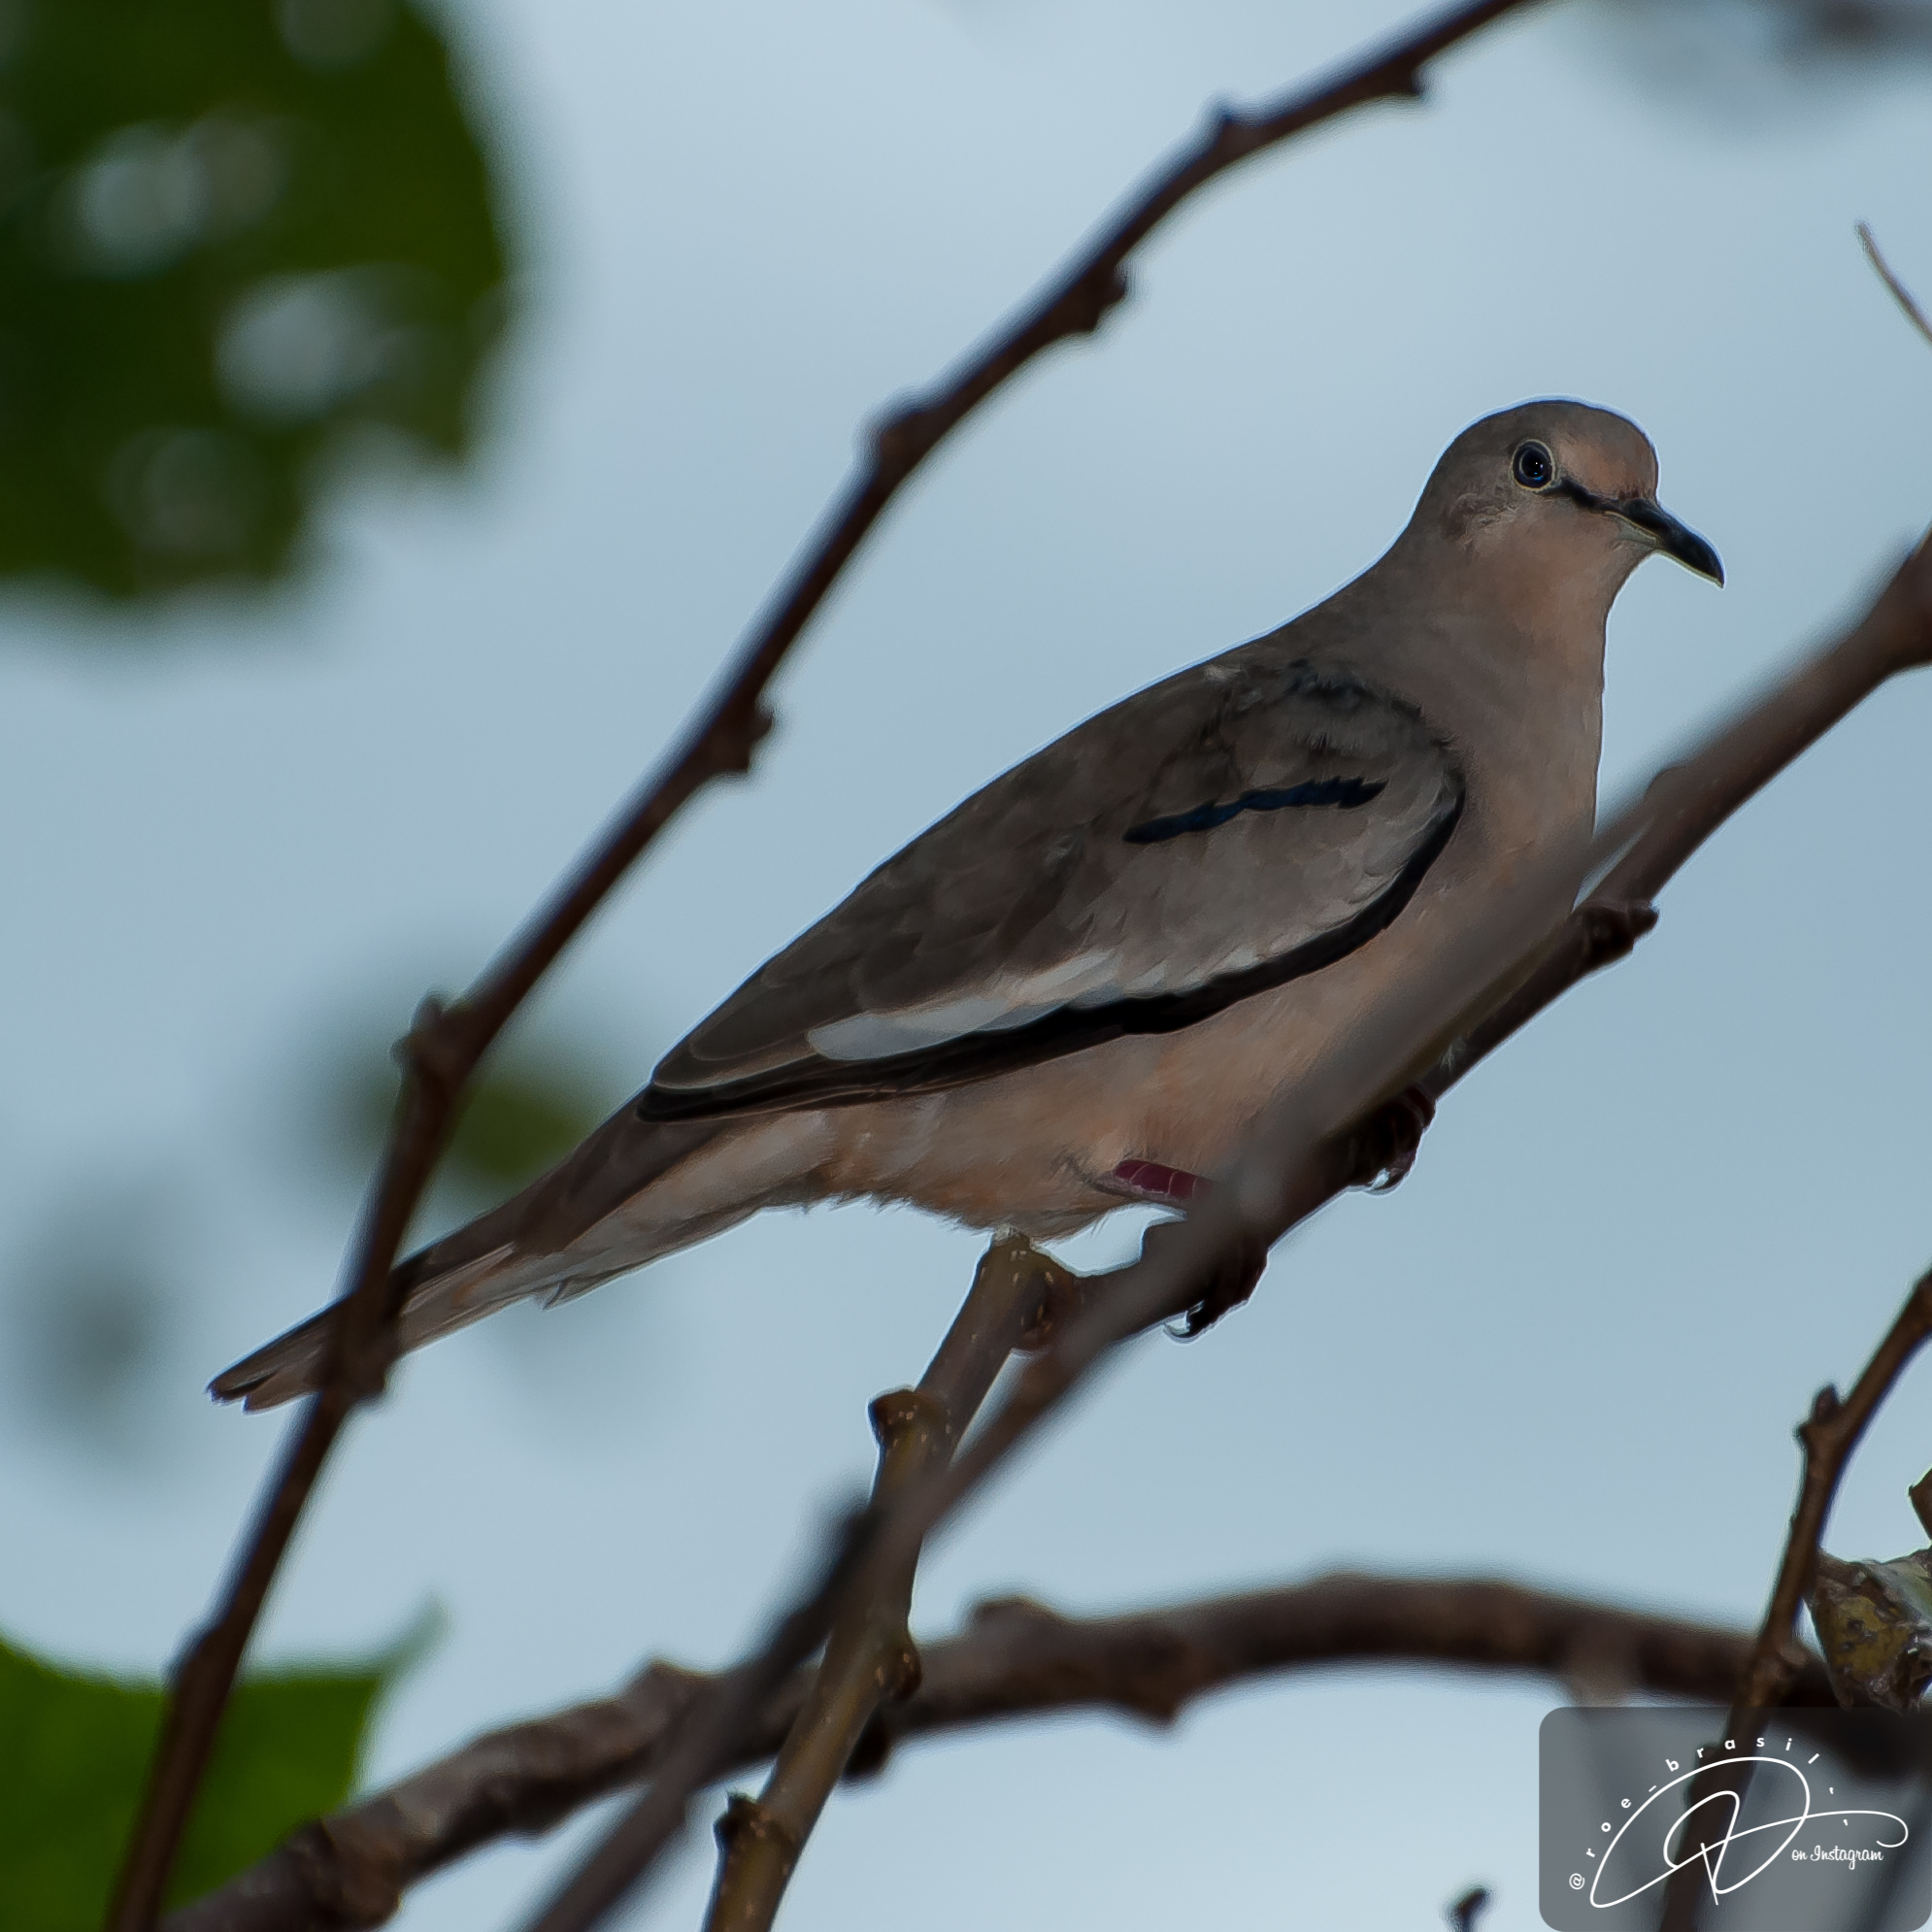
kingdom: Animalia
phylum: Chordata
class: Aves
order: Columbiformes
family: Columbidae
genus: Columbina
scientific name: Columbina picui
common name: Picui ground dove
